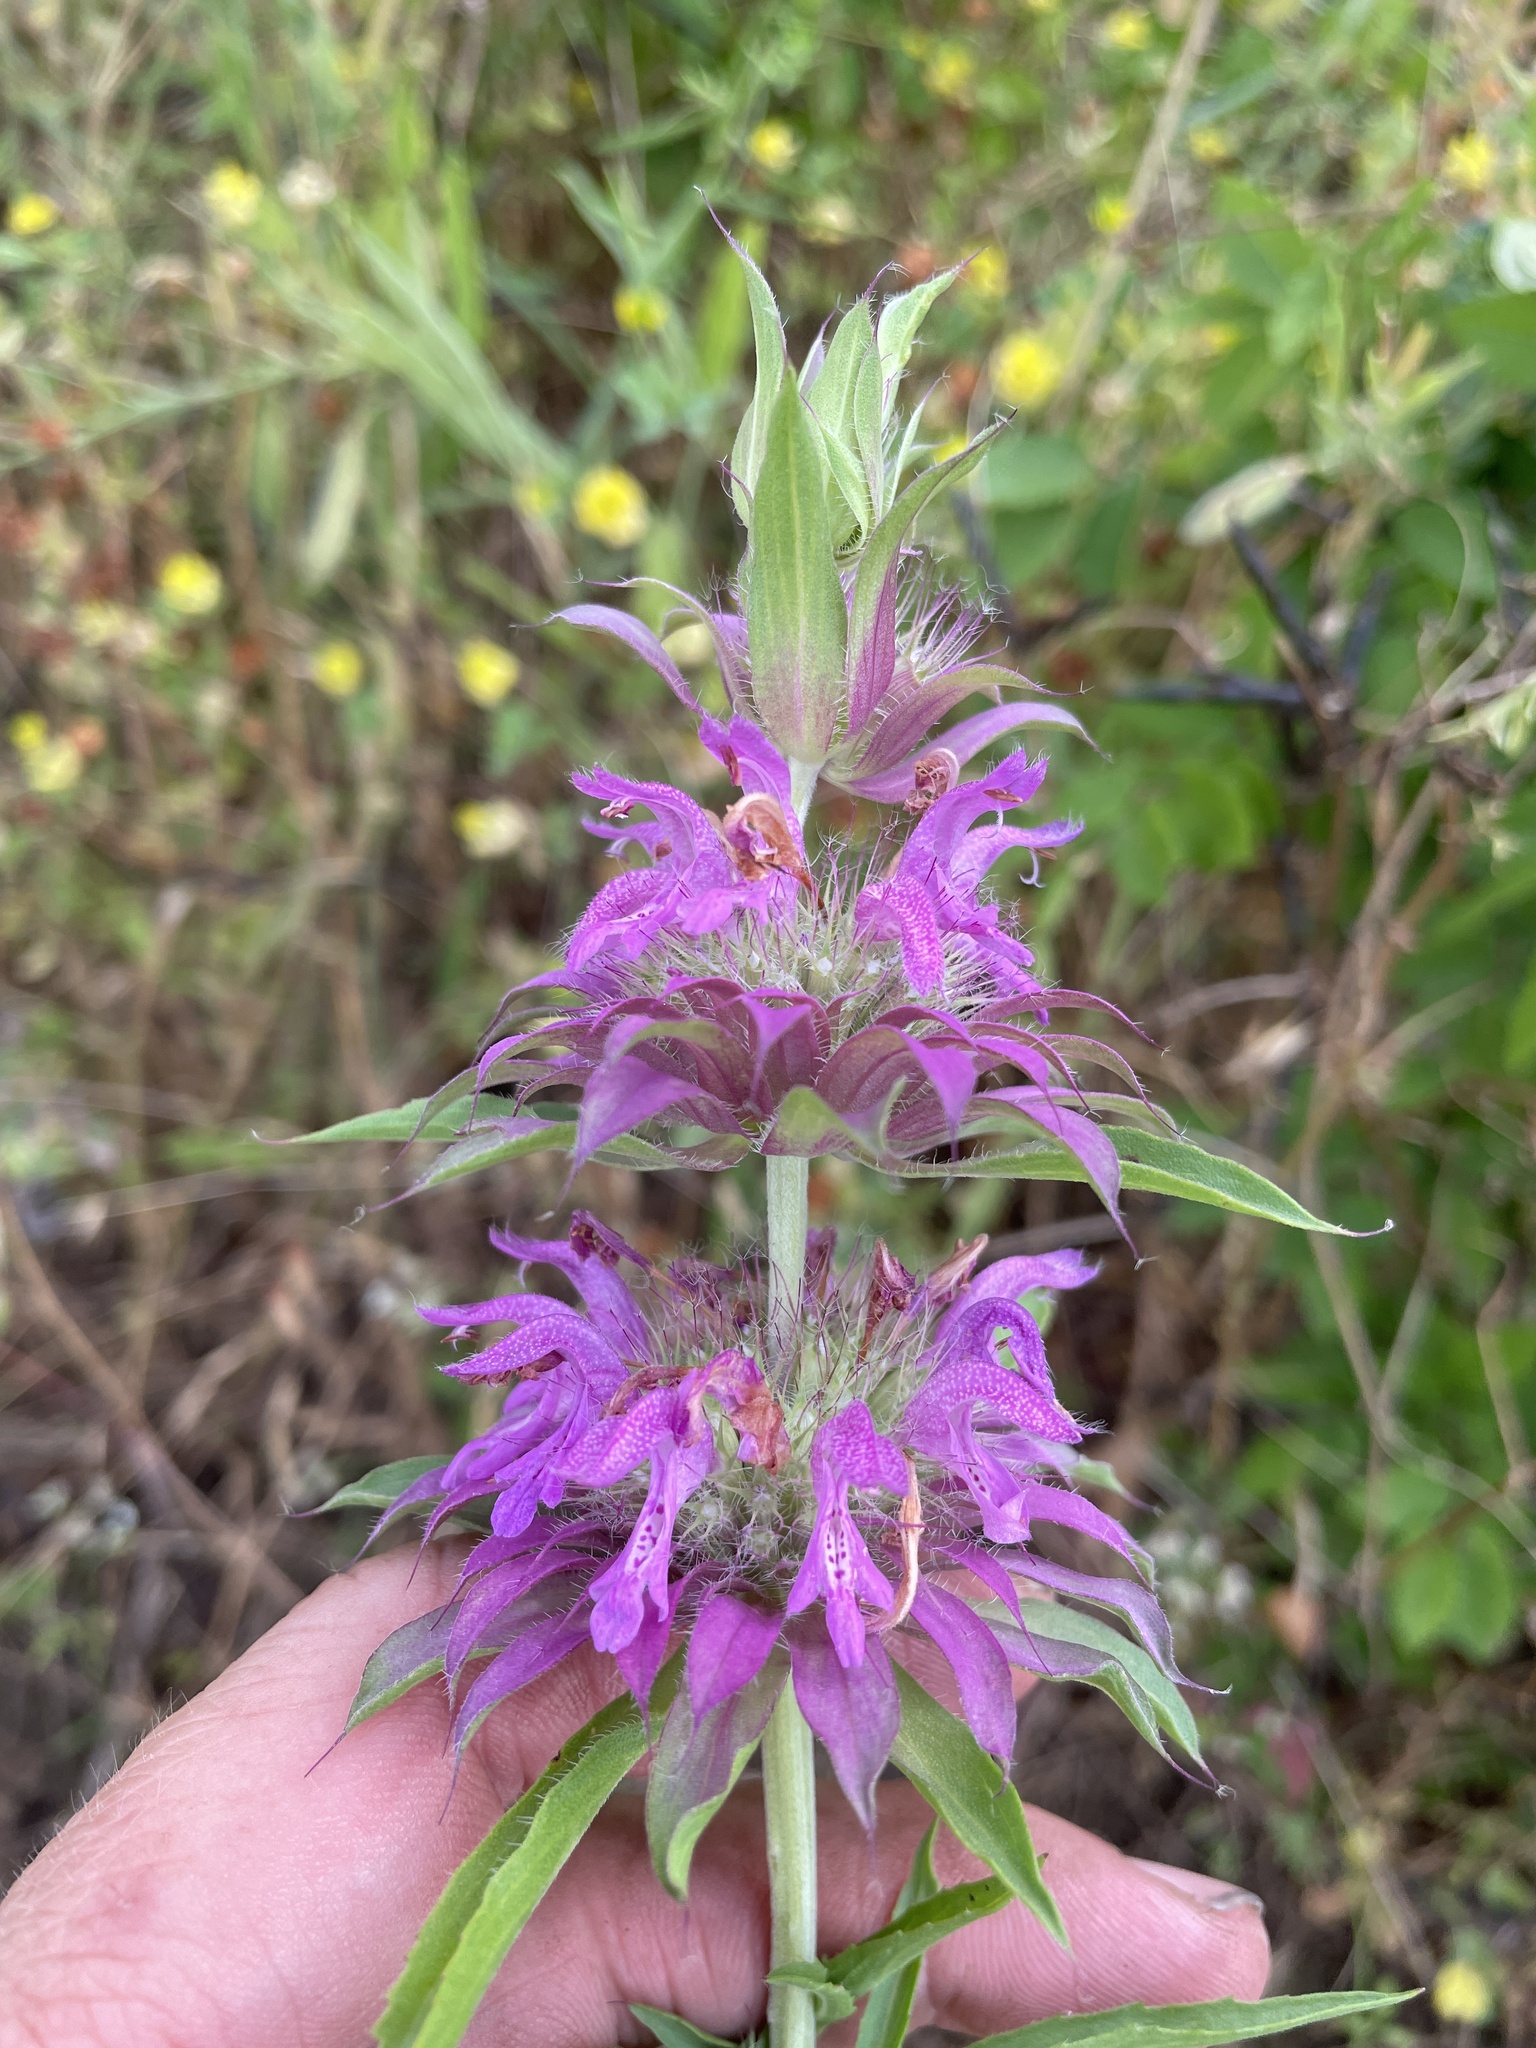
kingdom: Plantae
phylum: Tracheophyta
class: Magnoliopsida
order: Lamiales
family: Lamiaceae
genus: Monarda
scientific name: Monarda citriodora
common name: Lemon beebalm
